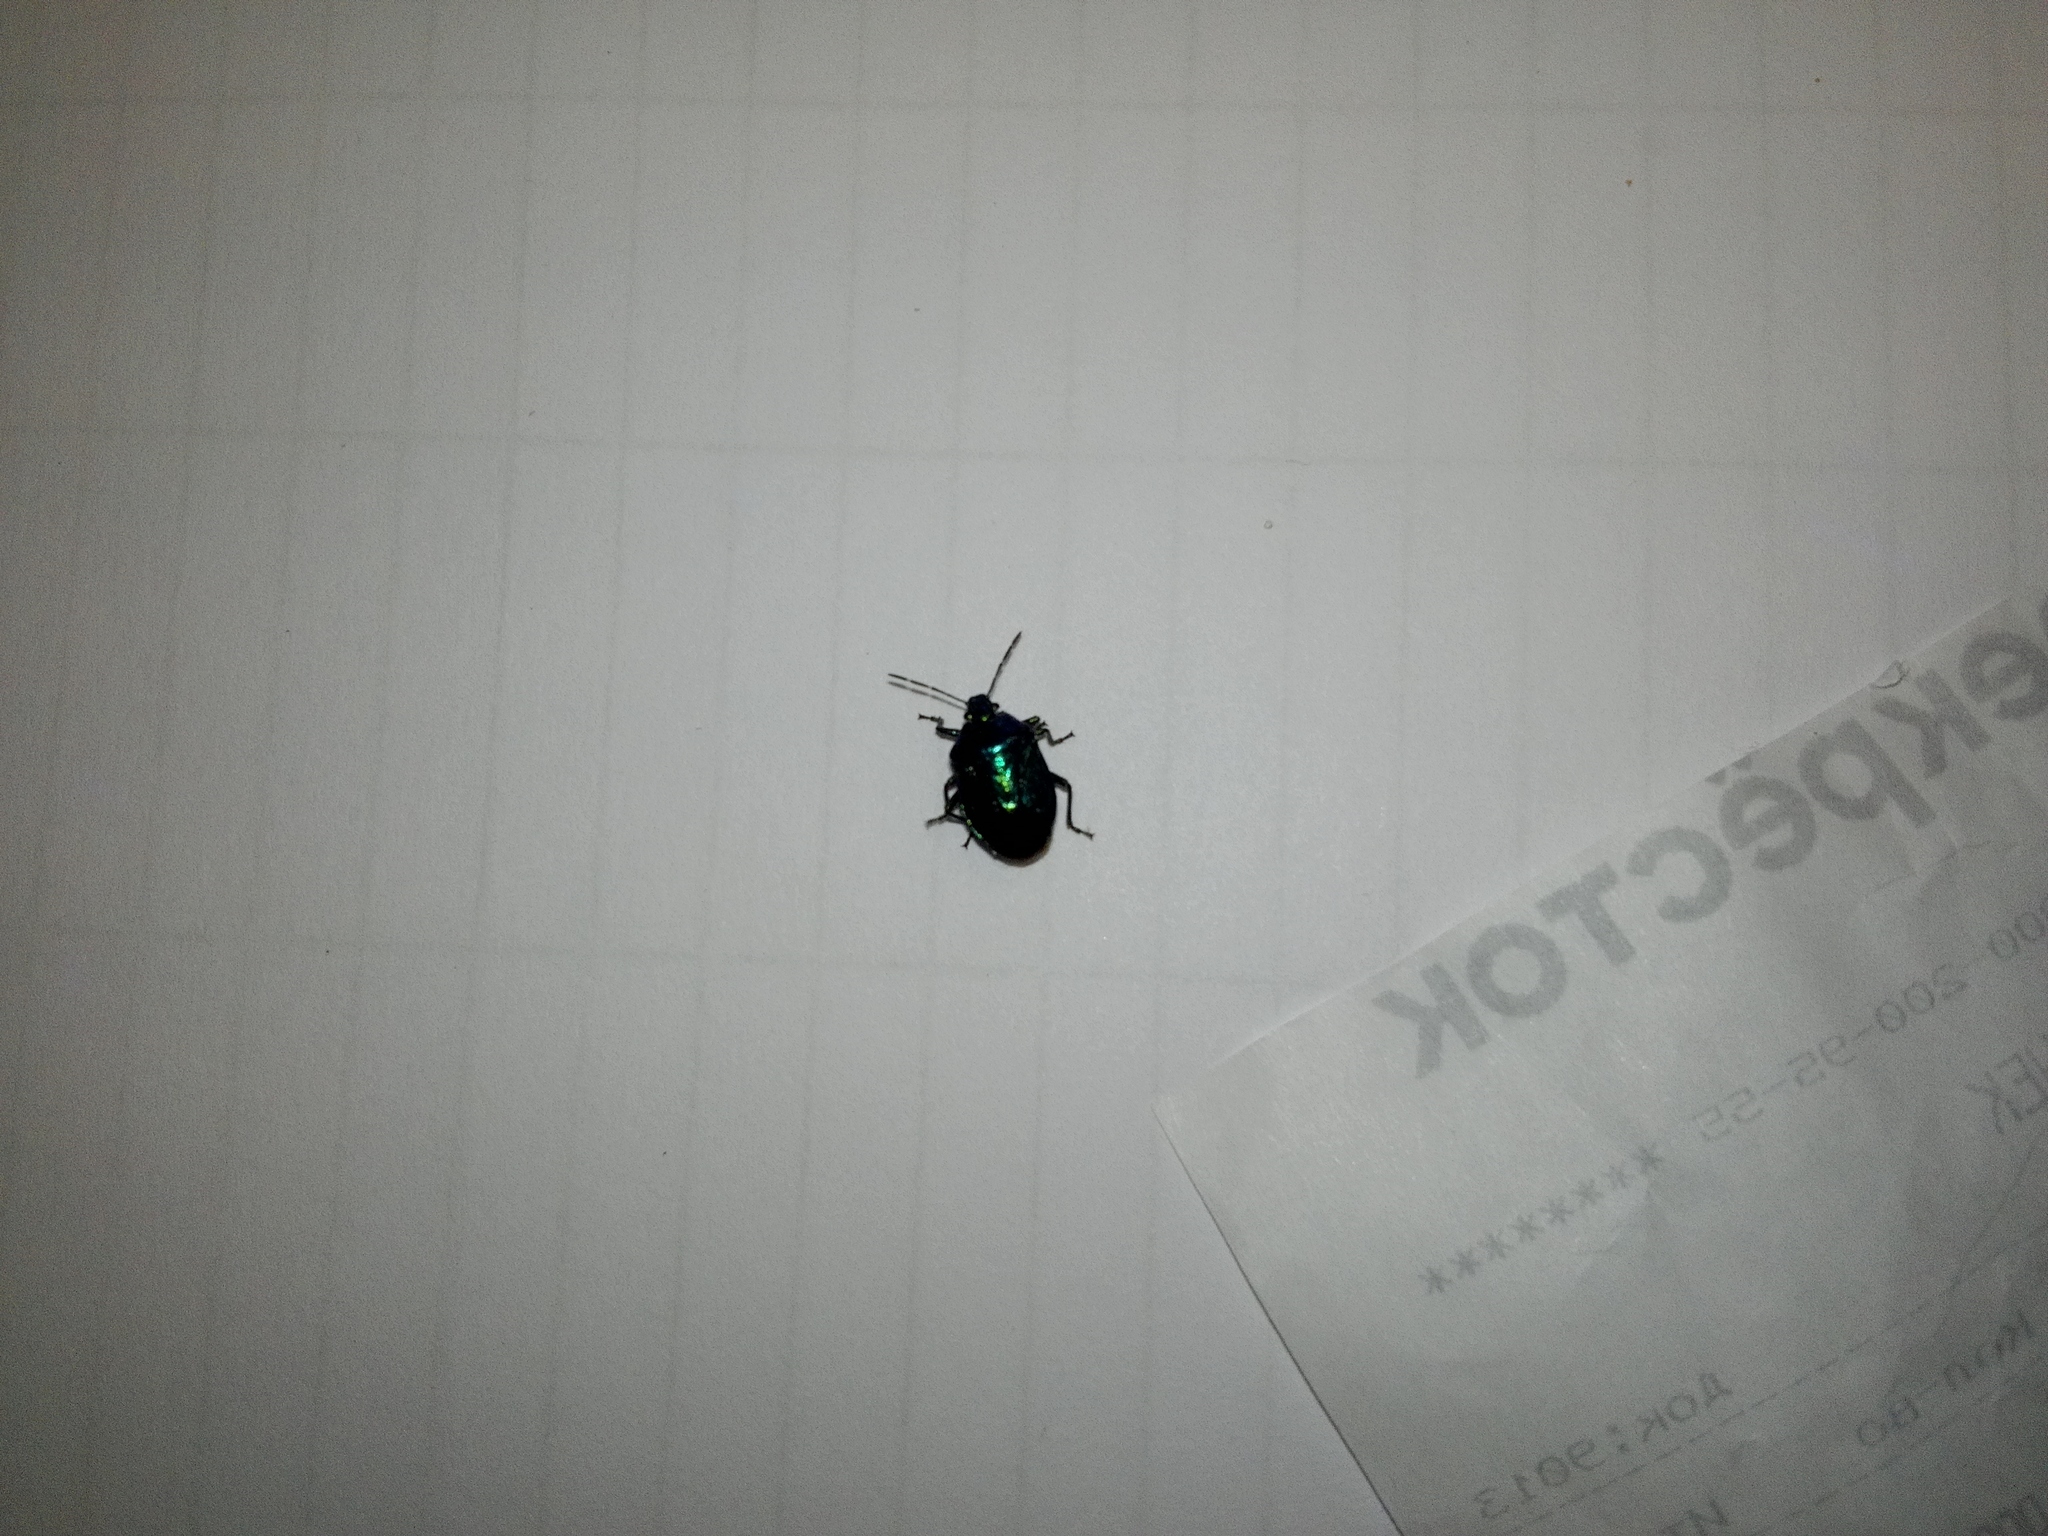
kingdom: Animalia
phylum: Arthropoda
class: Insecta
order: Hemiptera
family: Pentatomidae
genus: Zicrona
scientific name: Zicrona caerulea
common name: Blue shieldbug
